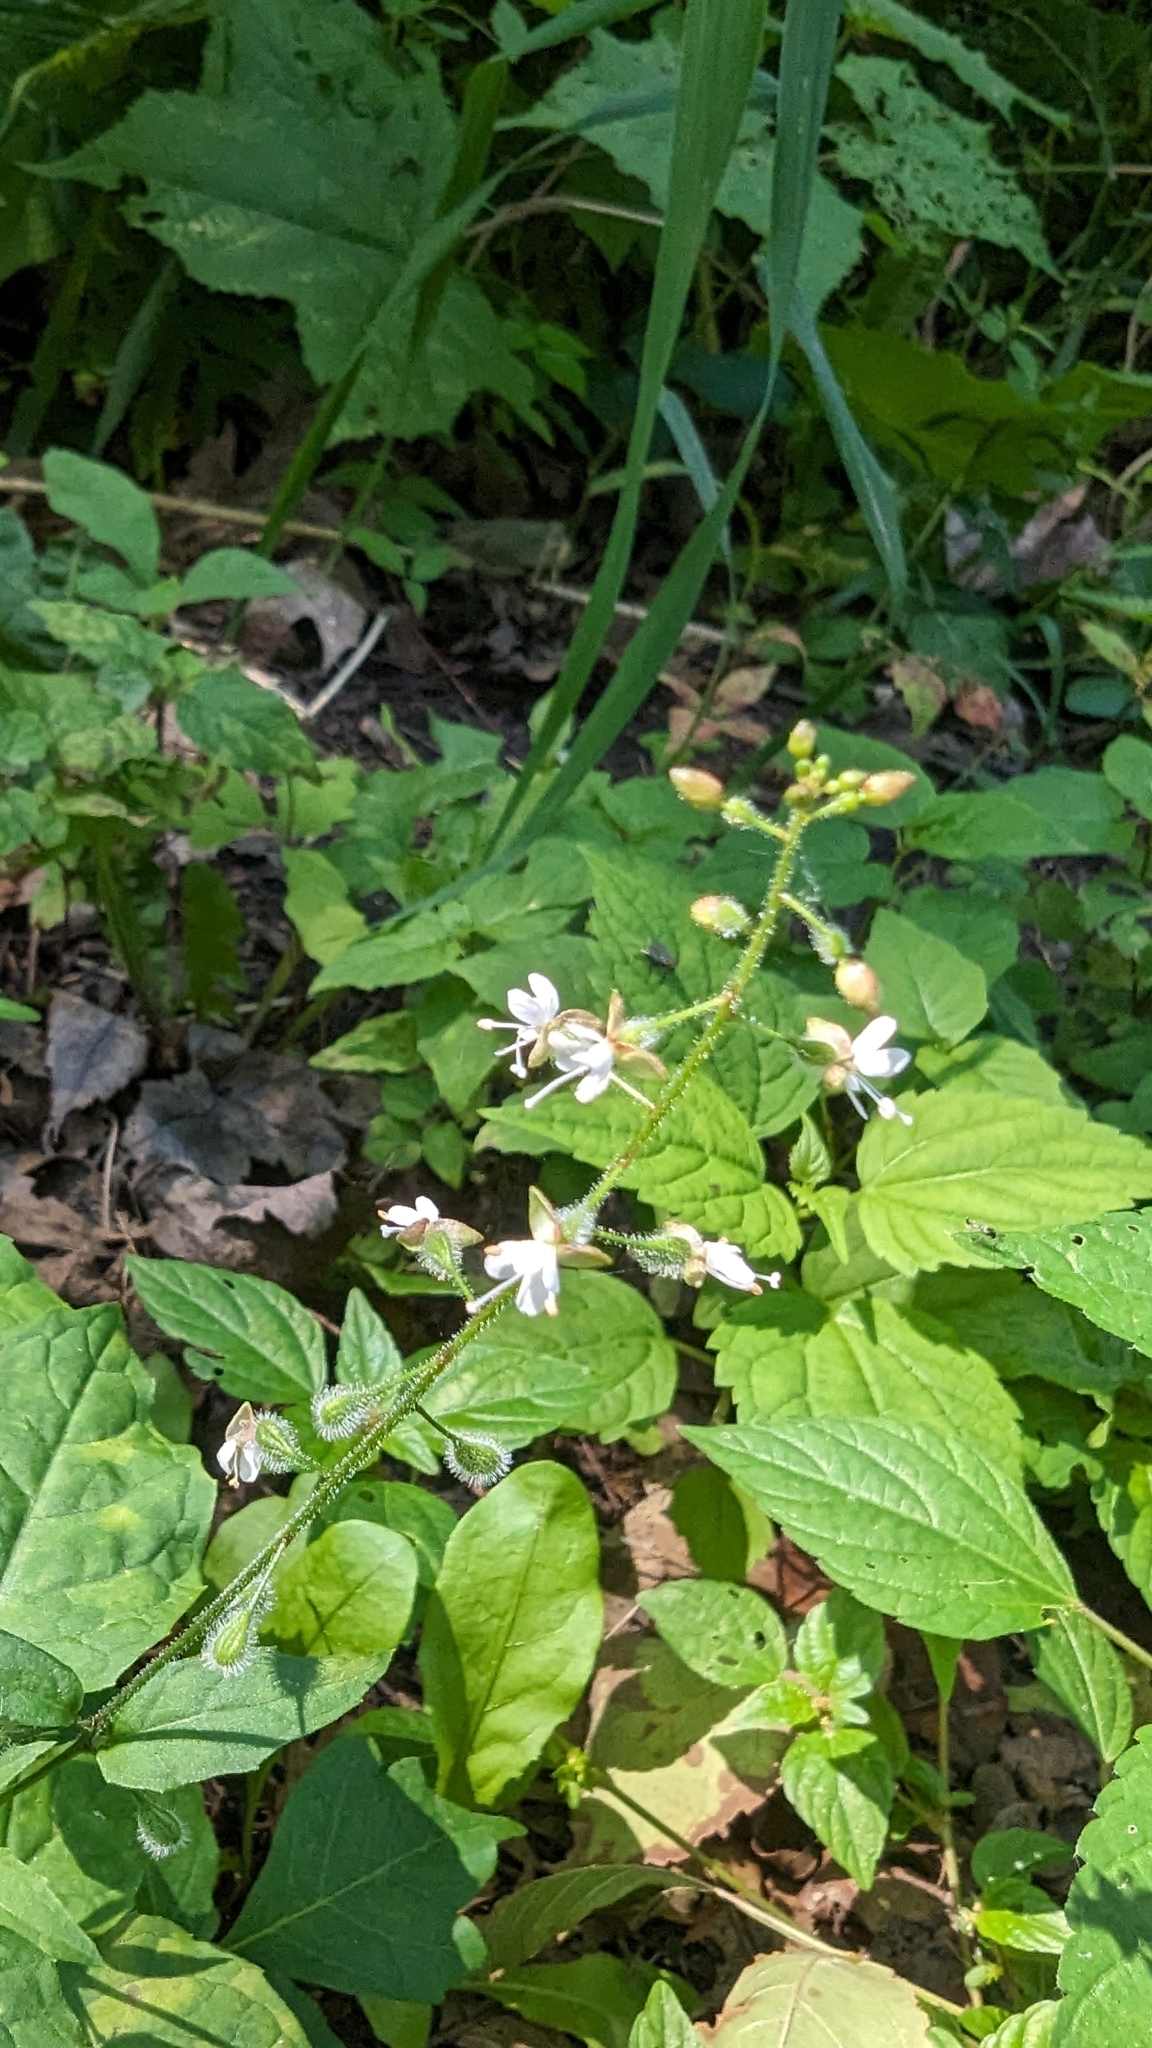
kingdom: Plantae
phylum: Tracheophyta
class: Magnoliopsida
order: Myrtales
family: Onagraceae
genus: Circaea
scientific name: Circaea canadensis
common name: Broad-leaved enchanter's nightshade
